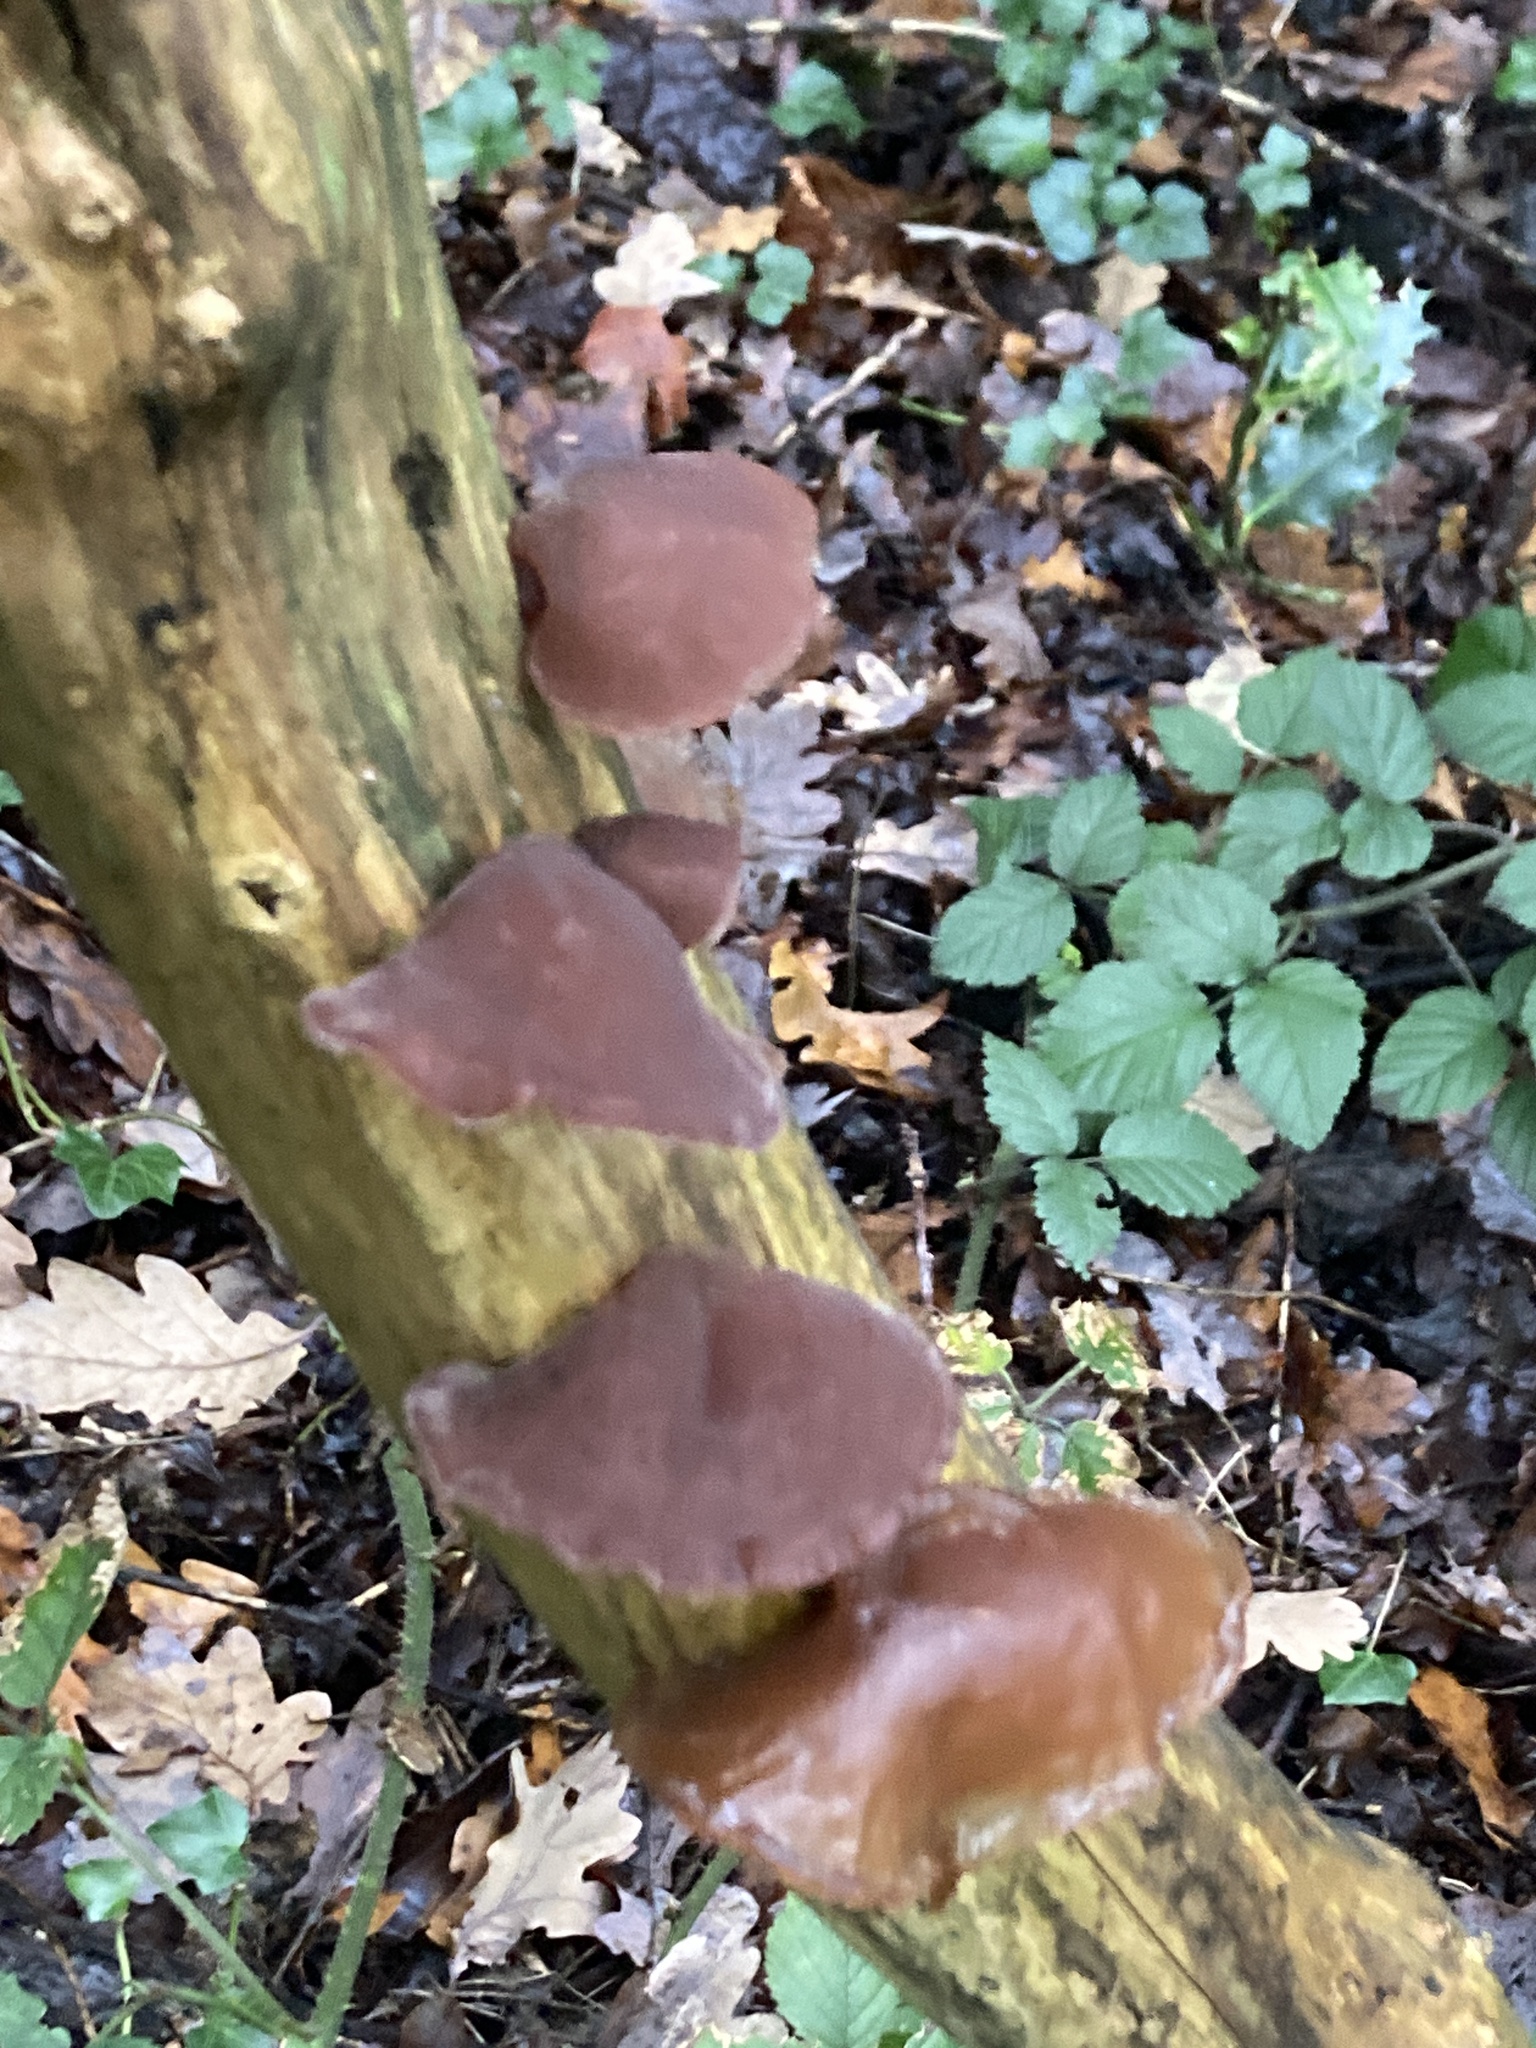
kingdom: Fungi
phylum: Basidiomycota
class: Agaricomycetes
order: Auriculariales
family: Auriculariaceae
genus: Auricularia
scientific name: Auricularia auricula-judae
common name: Jelly ear
